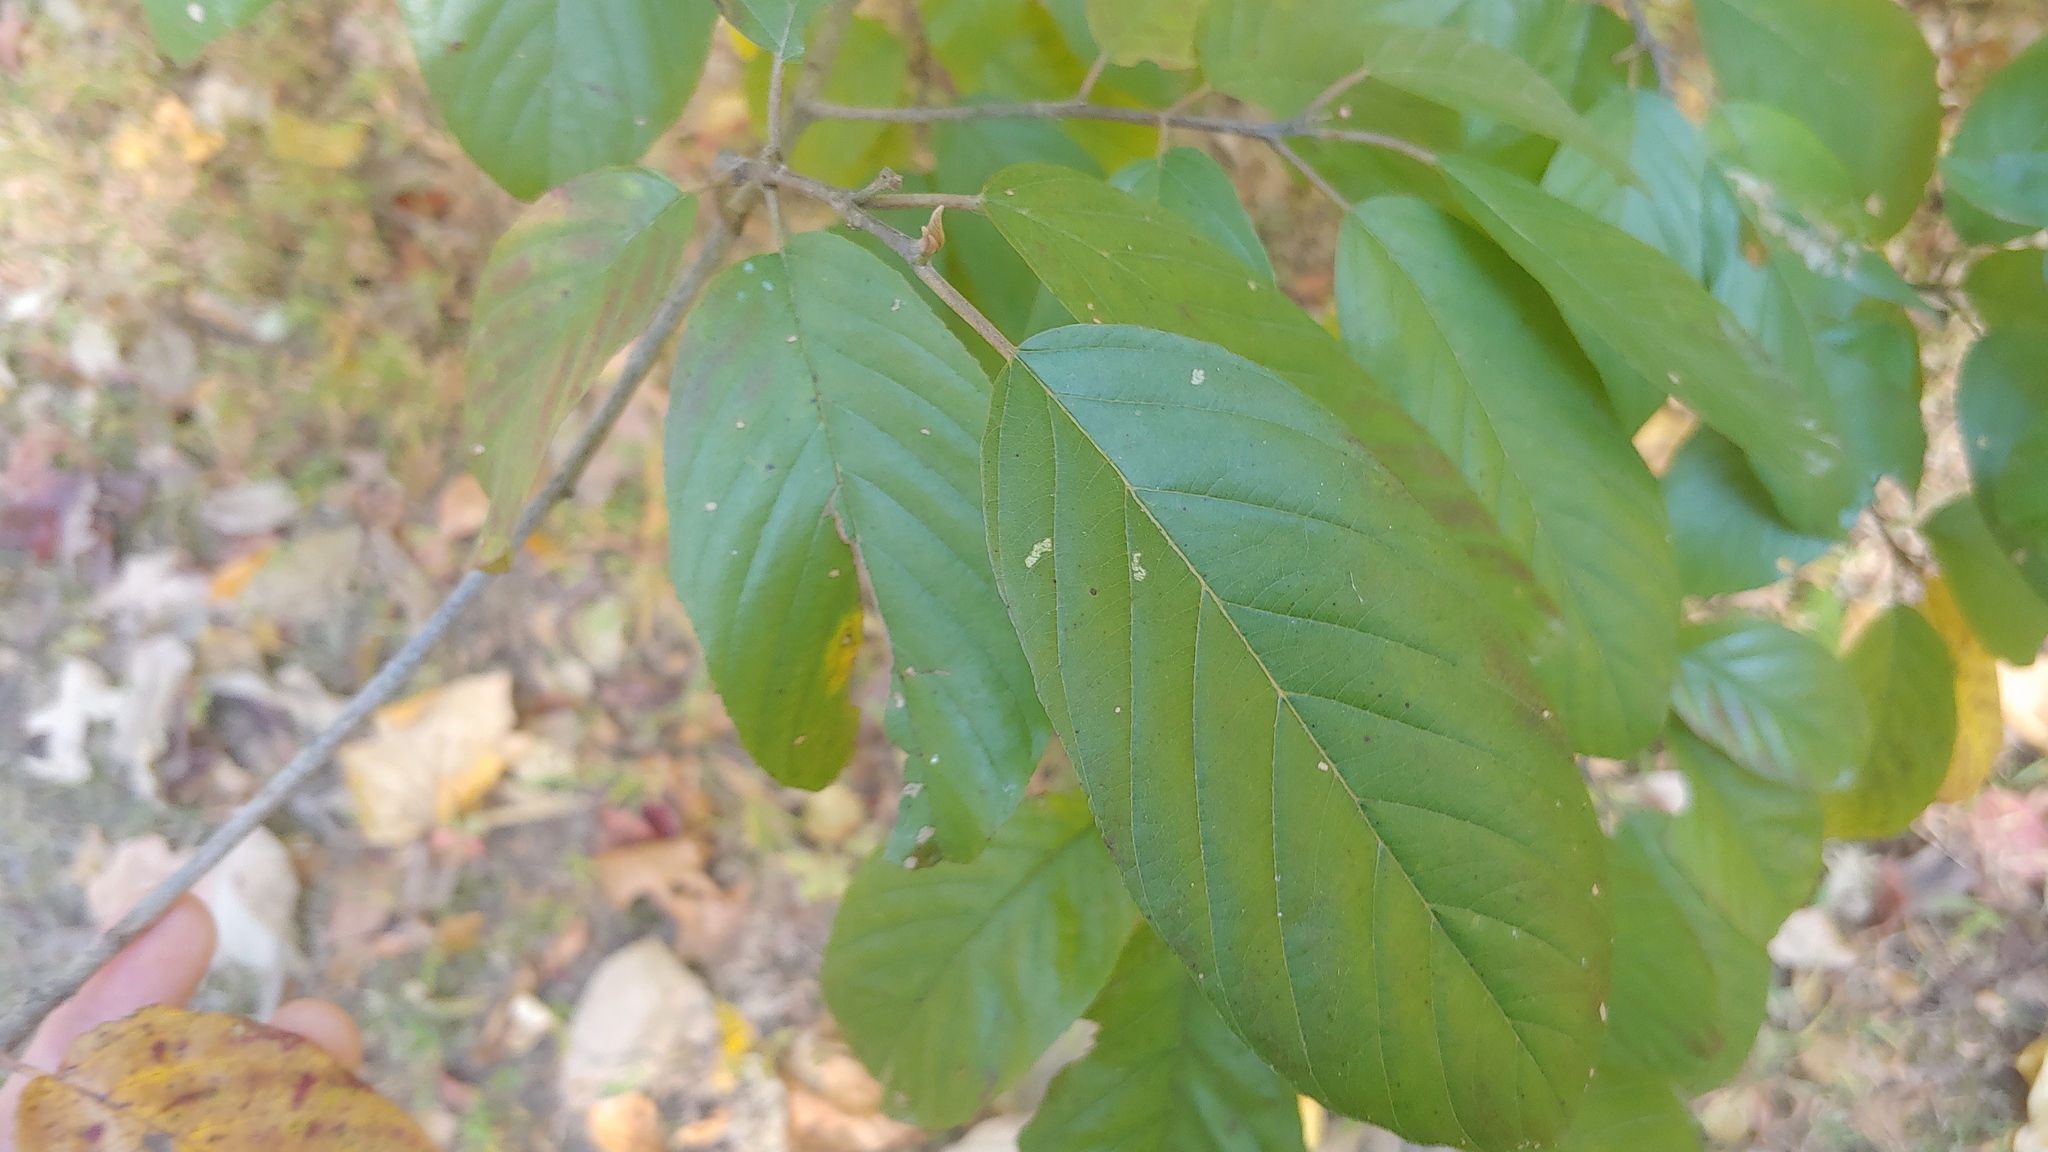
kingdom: Plantae
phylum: Tracheophyta
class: Magnoliopsida
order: Rosales
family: Rhamnaceae
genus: Frangula
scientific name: Frangula caroliniana
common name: Carolina buckthorn
